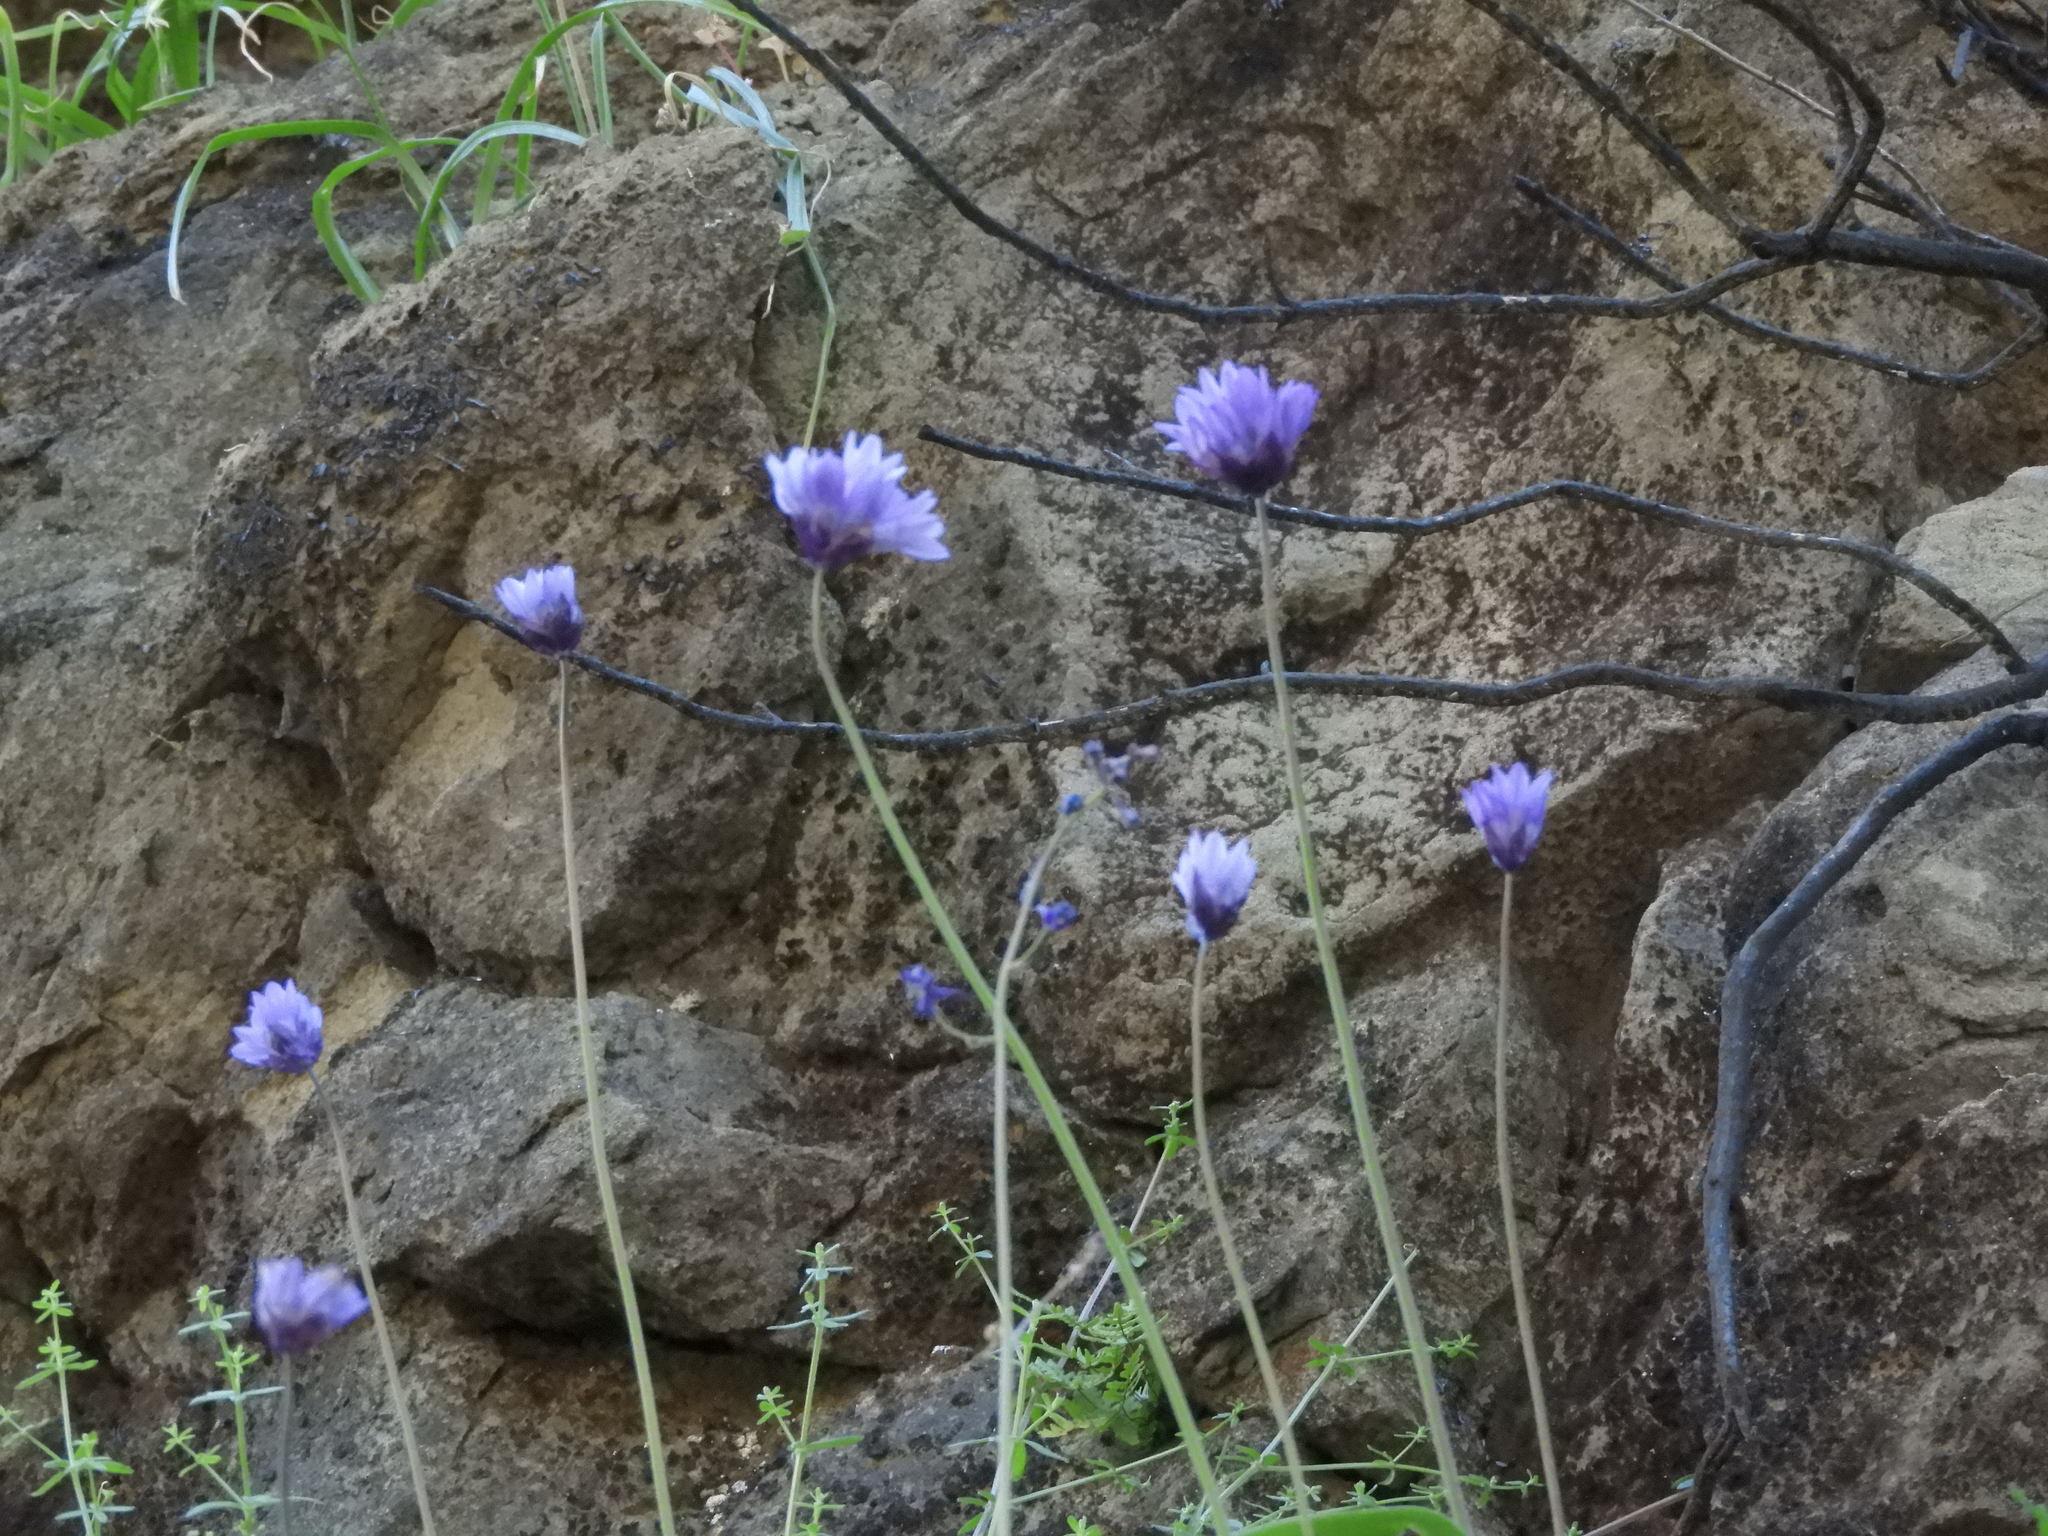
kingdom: Plantae
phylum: Tracheophyta
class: Liliopsida
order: Asparagales
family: Asparagaceae
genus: Dipterostemon
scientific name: Dipterostemon capitatus
